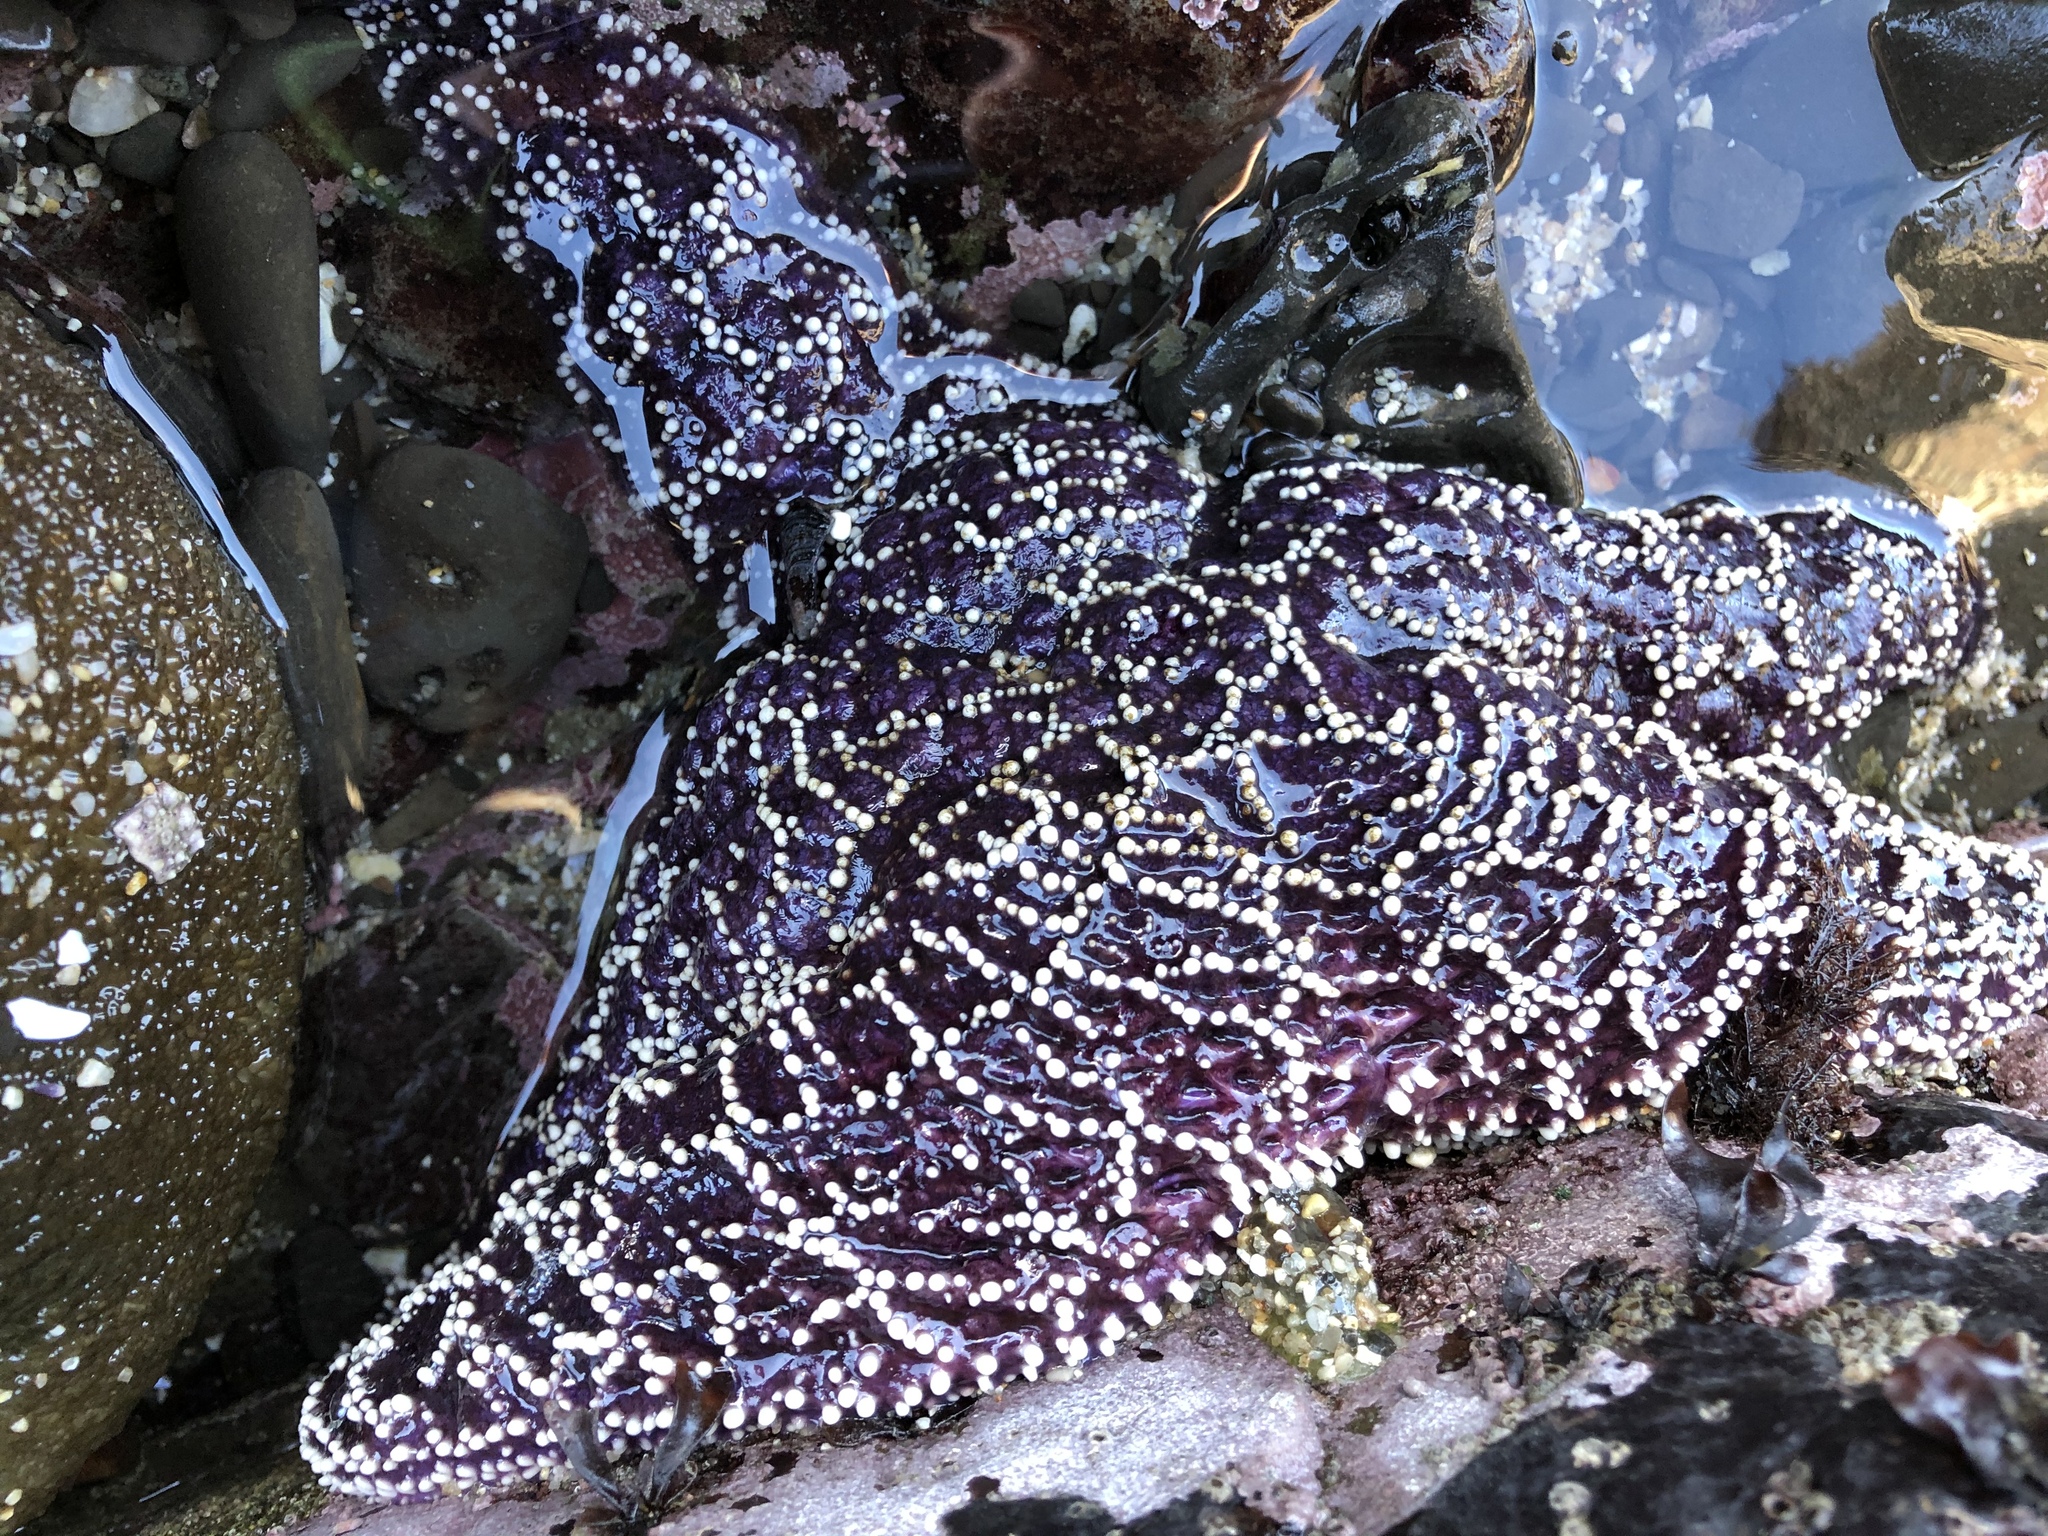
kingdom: Animalia
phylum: Echinodermata
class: Asteroidea
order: Forcipulatida
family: Asteriidae
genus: Pisaster
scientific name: Pisaster ochraceus
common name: Ochre stars
